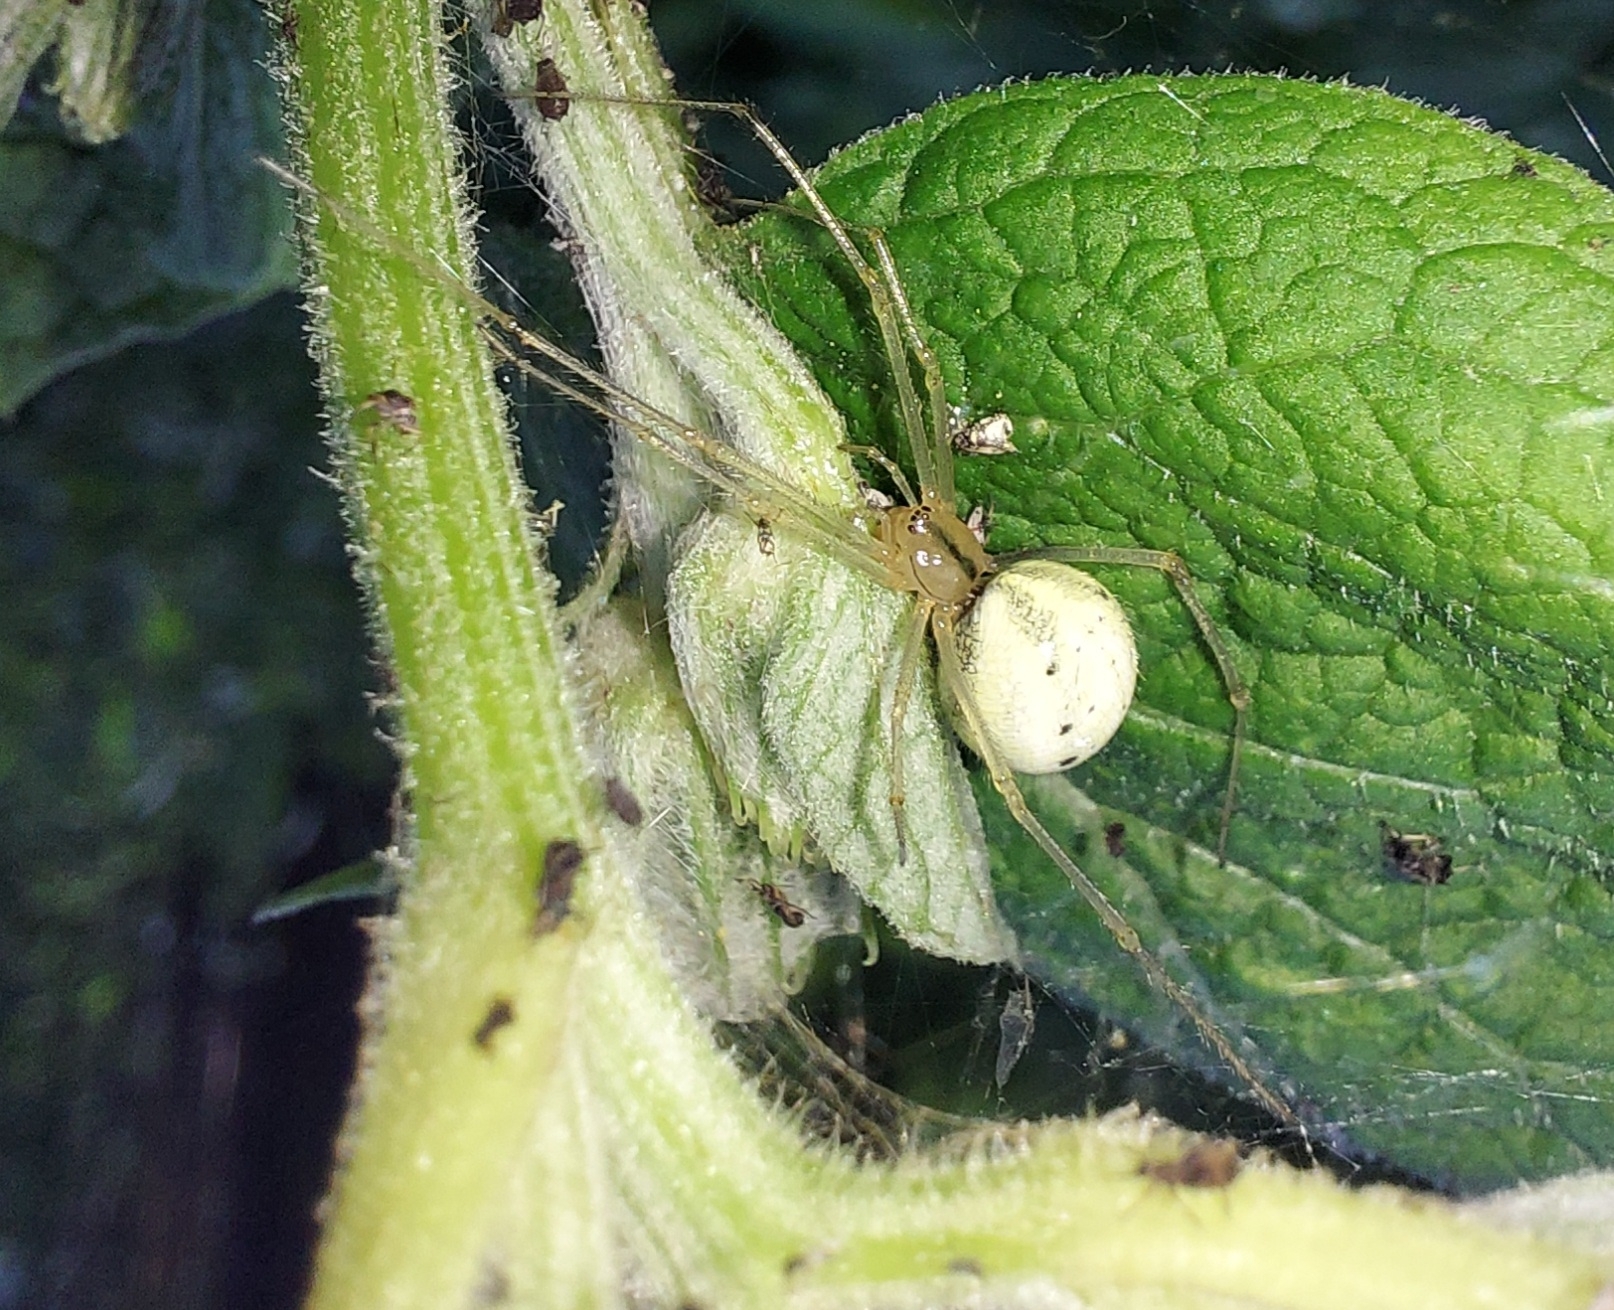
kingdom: Animalia
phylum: Arthropoda
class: Arachnida
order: Araneae
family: Theridiidae
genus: Enoplognatha
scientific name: Enoplognatha ovata
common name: Common candy-striped spider
